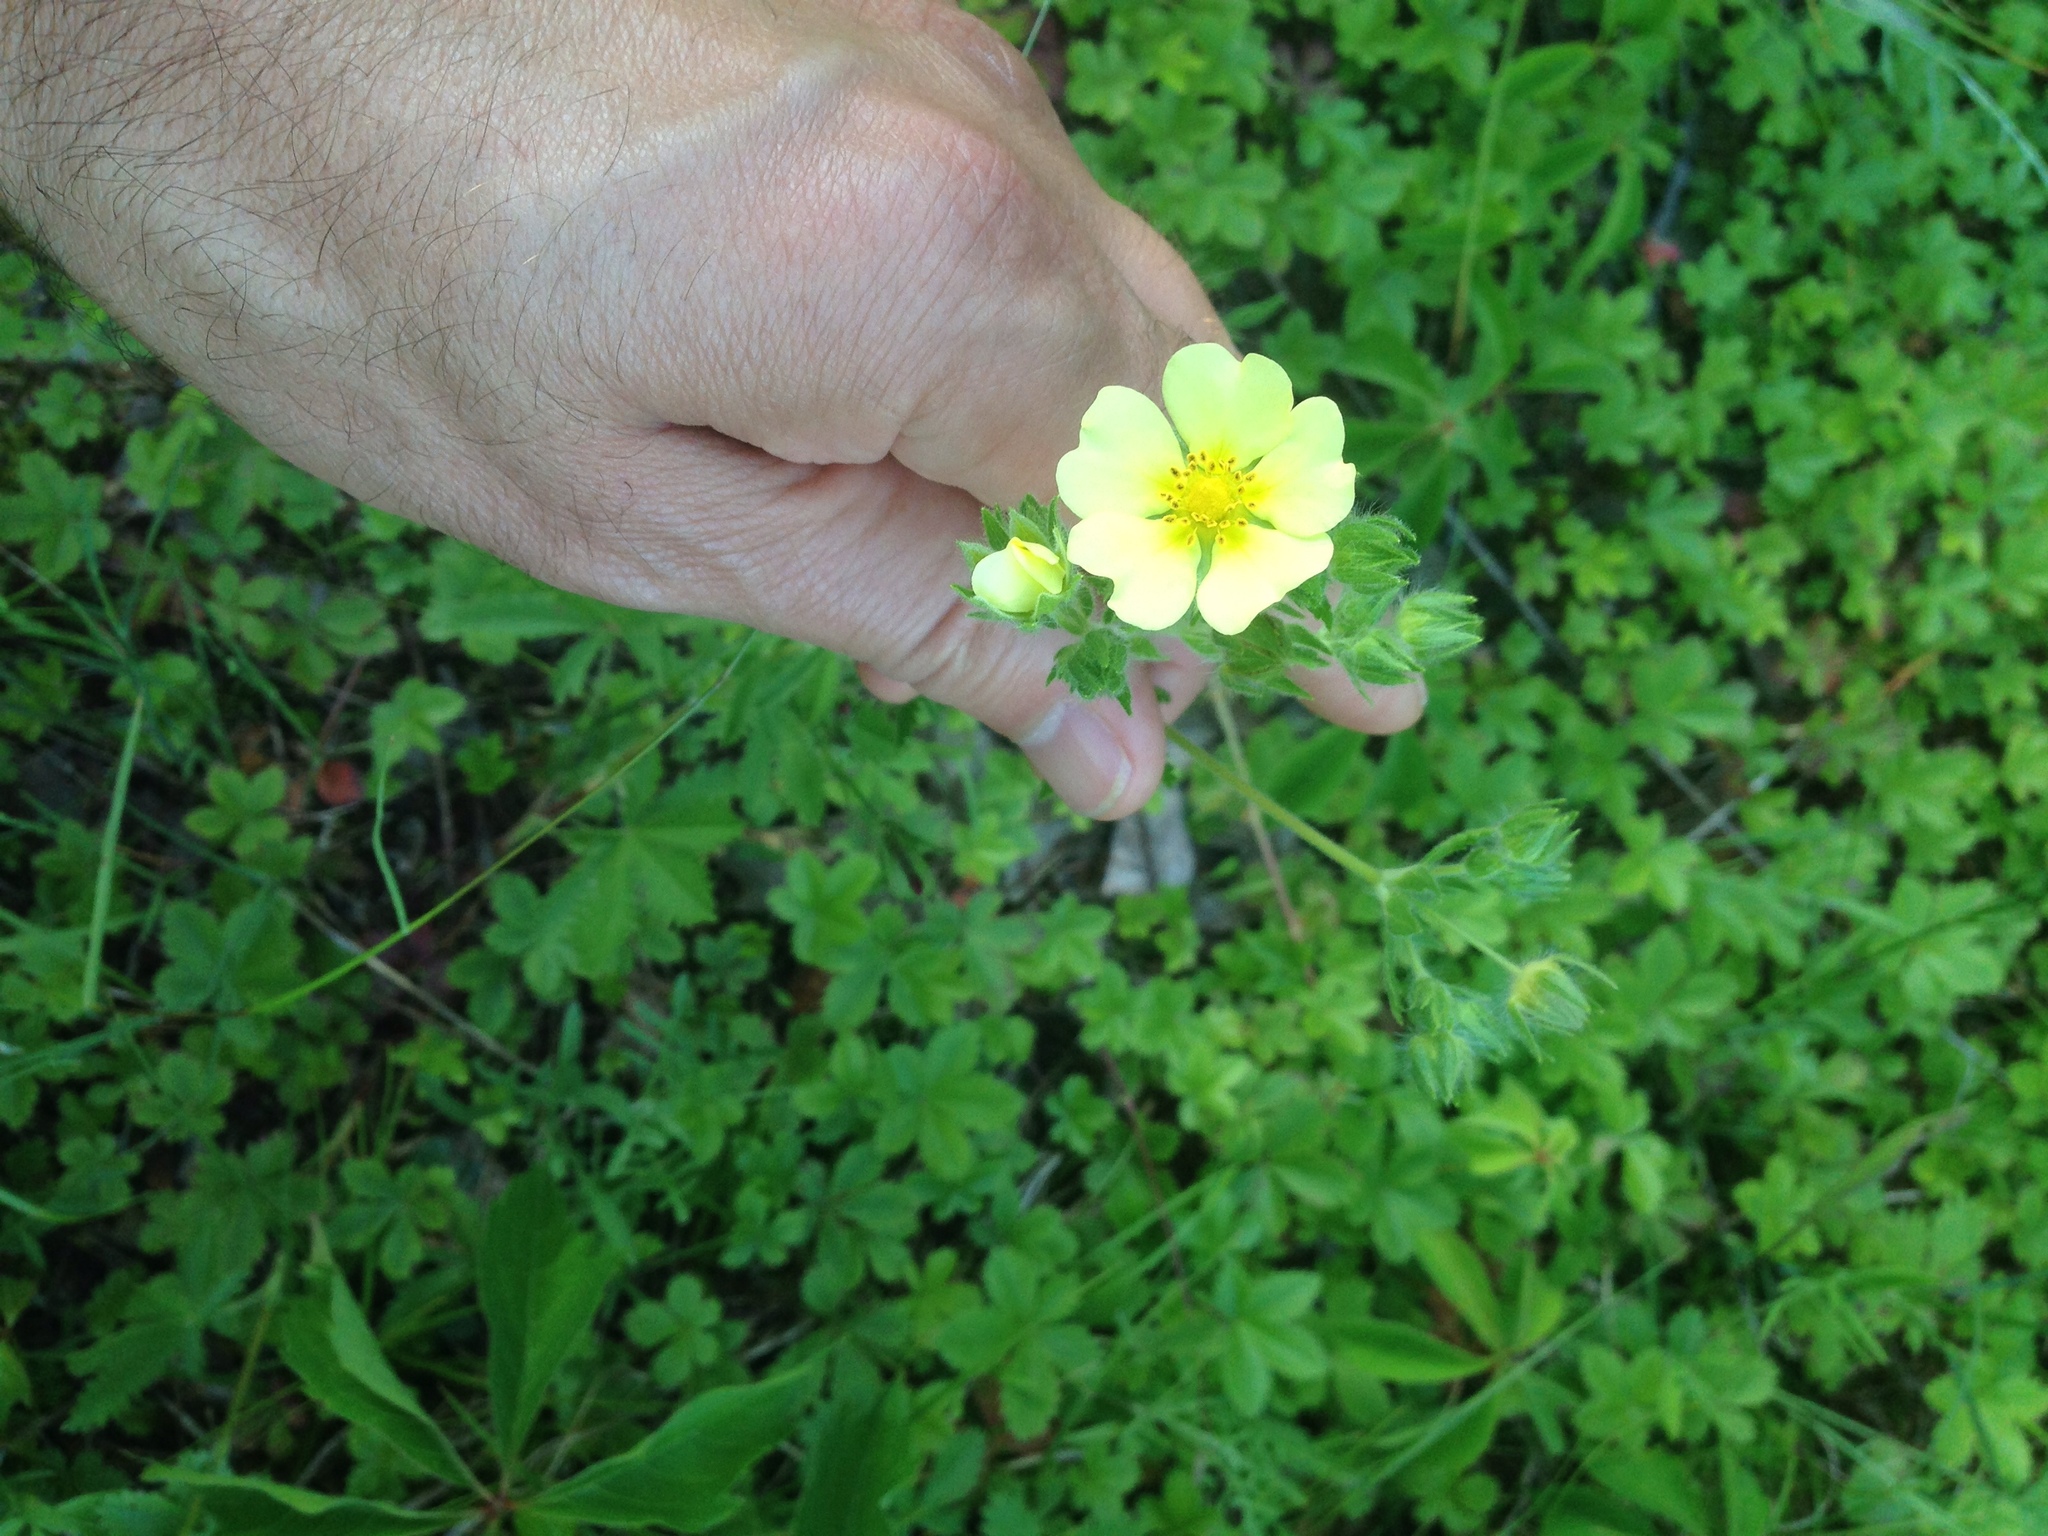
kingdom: Plantae
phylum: Tracheophyta
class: Magnoliopsida
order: Rosales
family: Rosaceae
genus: Potentilla
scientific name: Potentilla recta
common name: Sulphur cinquefoil
